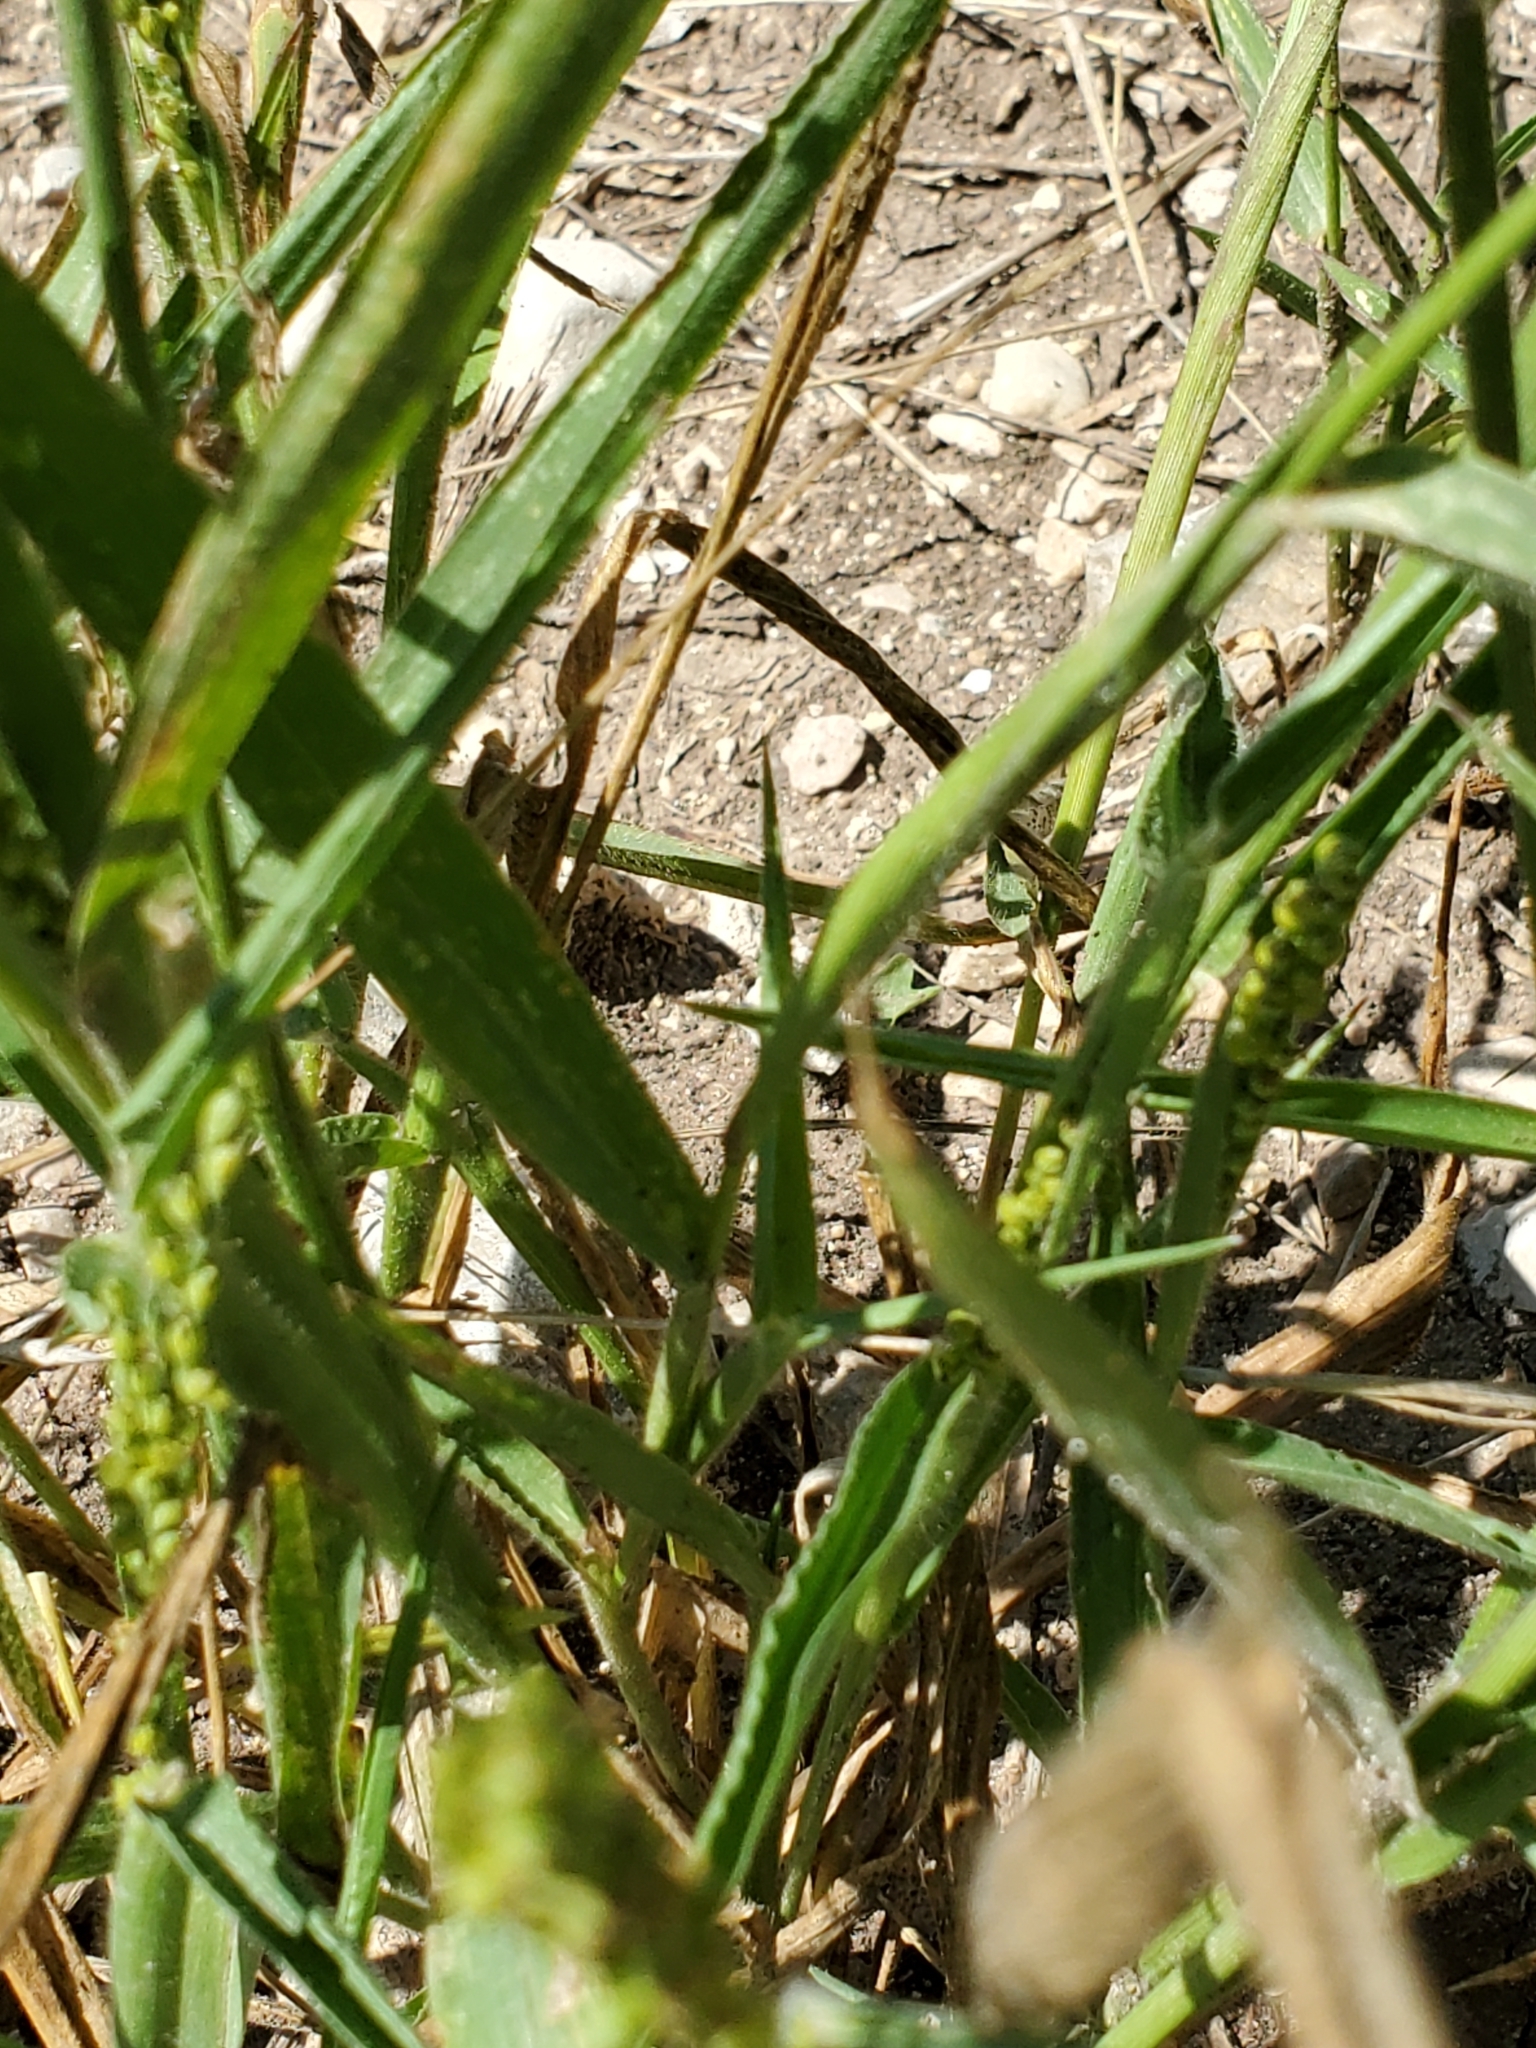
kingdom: Plantae
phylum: Tracheophyta
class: Liliopsida
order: Poales
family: Poaceae
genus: Urochloa
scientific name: Urochloa fusca
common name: Browntop signal grass
